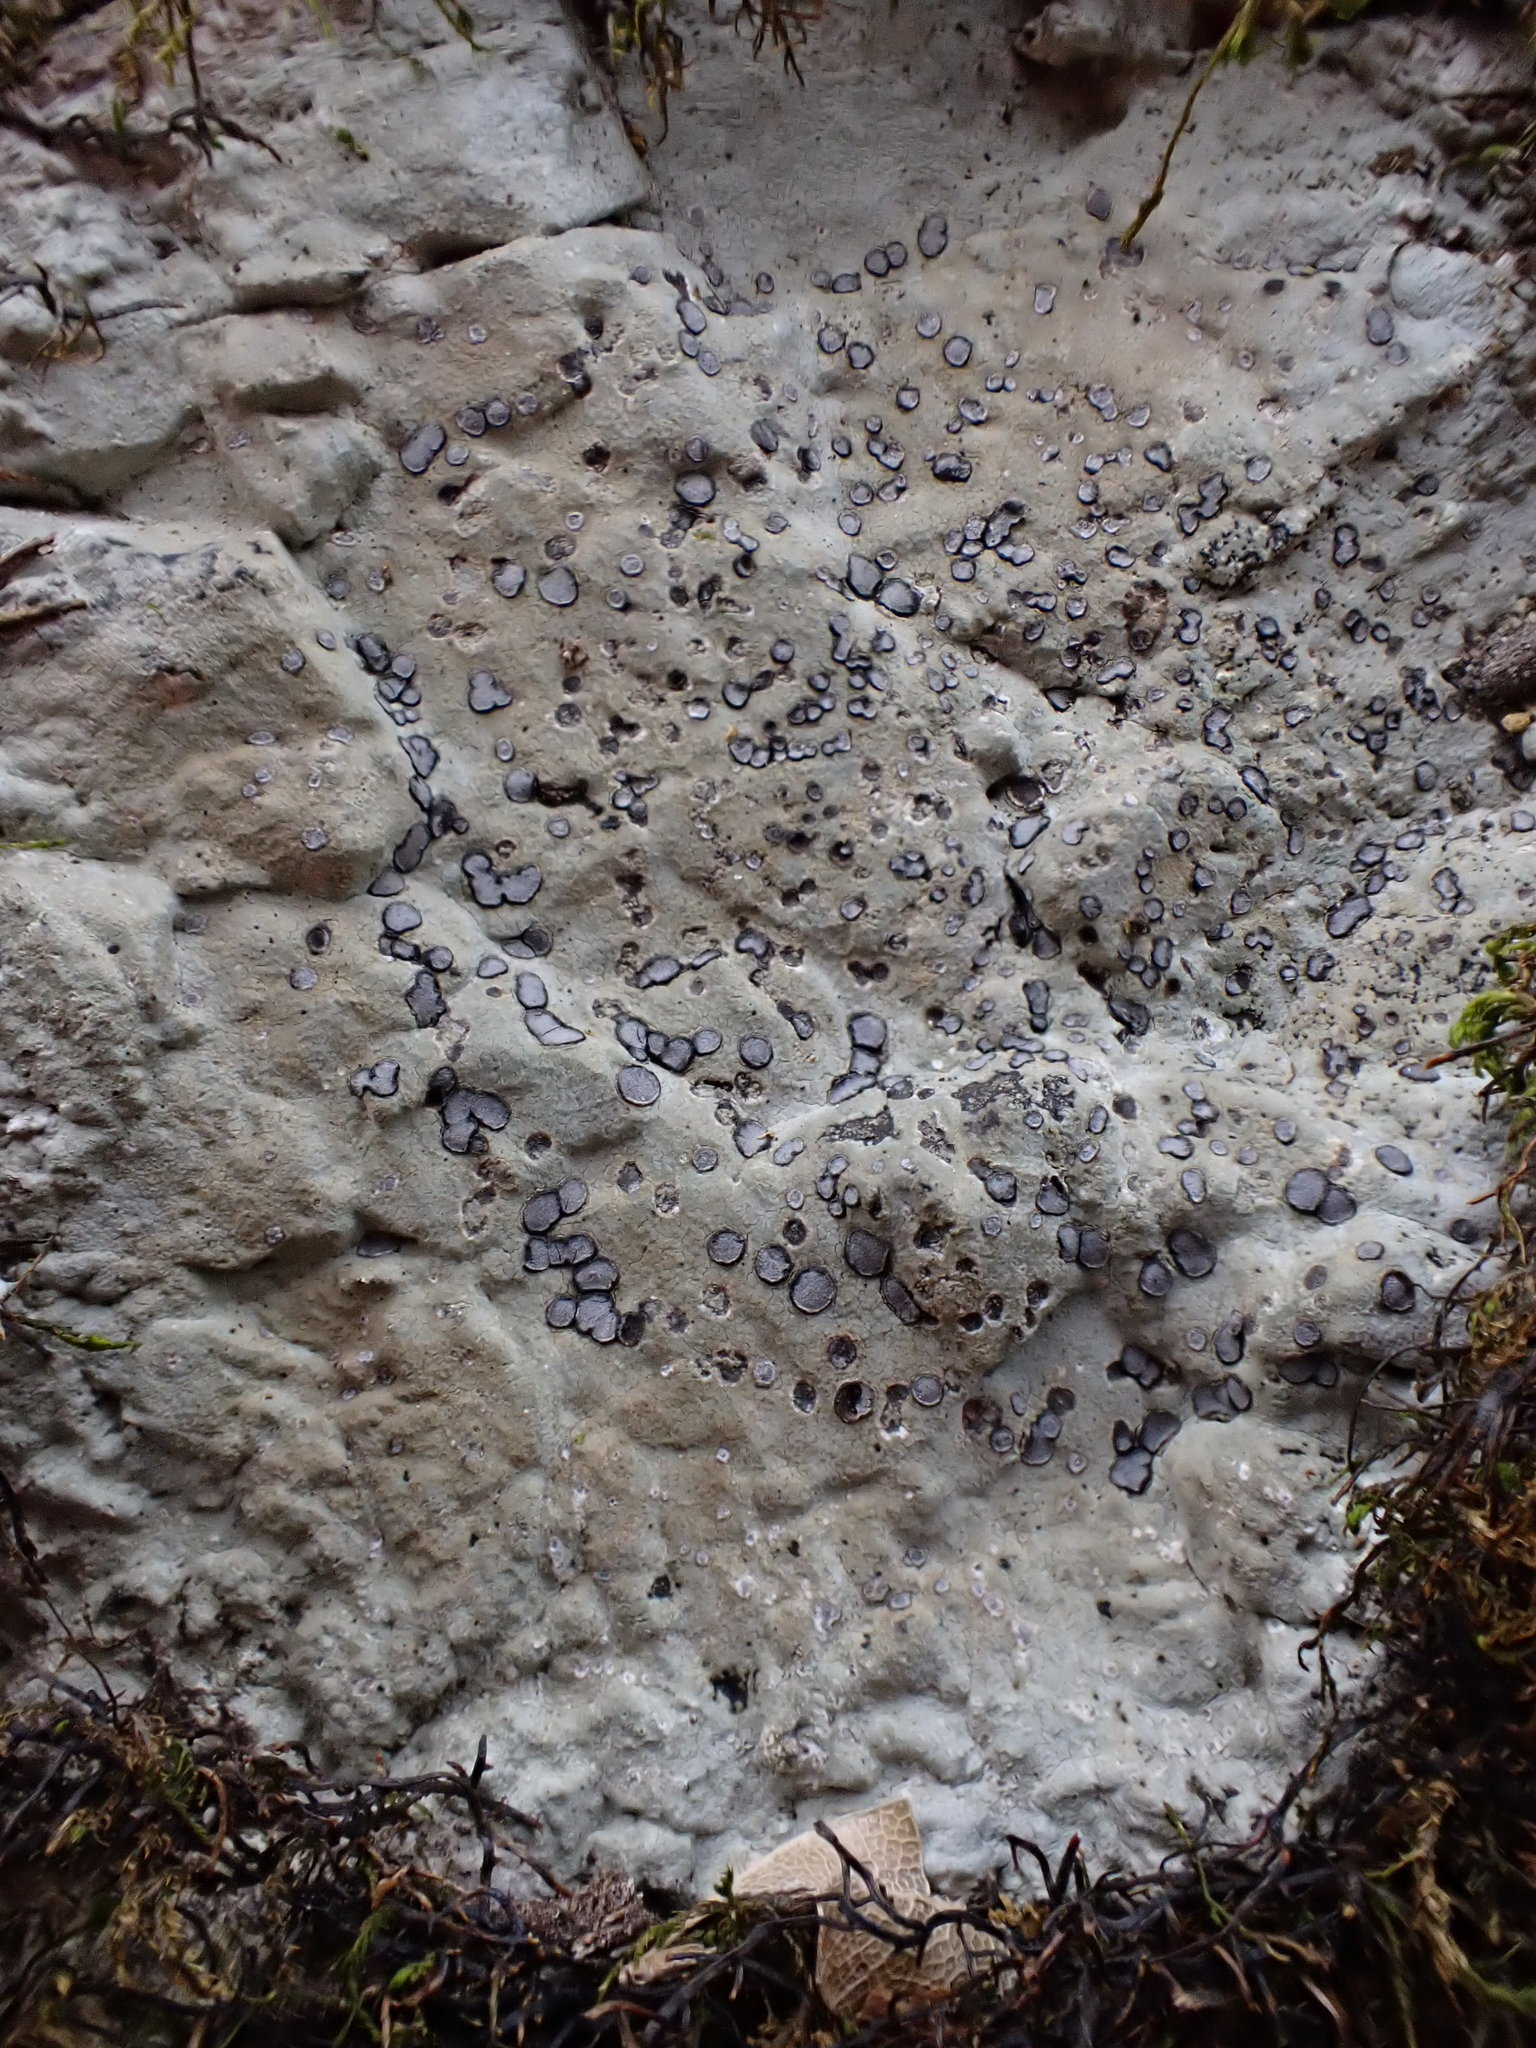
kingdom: Fungi
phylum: Ascomycota
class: Lecanoromycetes
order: Lecideales
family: Lecideaceae
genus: Porpidia
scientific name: Porpidia albocaerulescens
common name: Smokey-eyed boulder lichen
